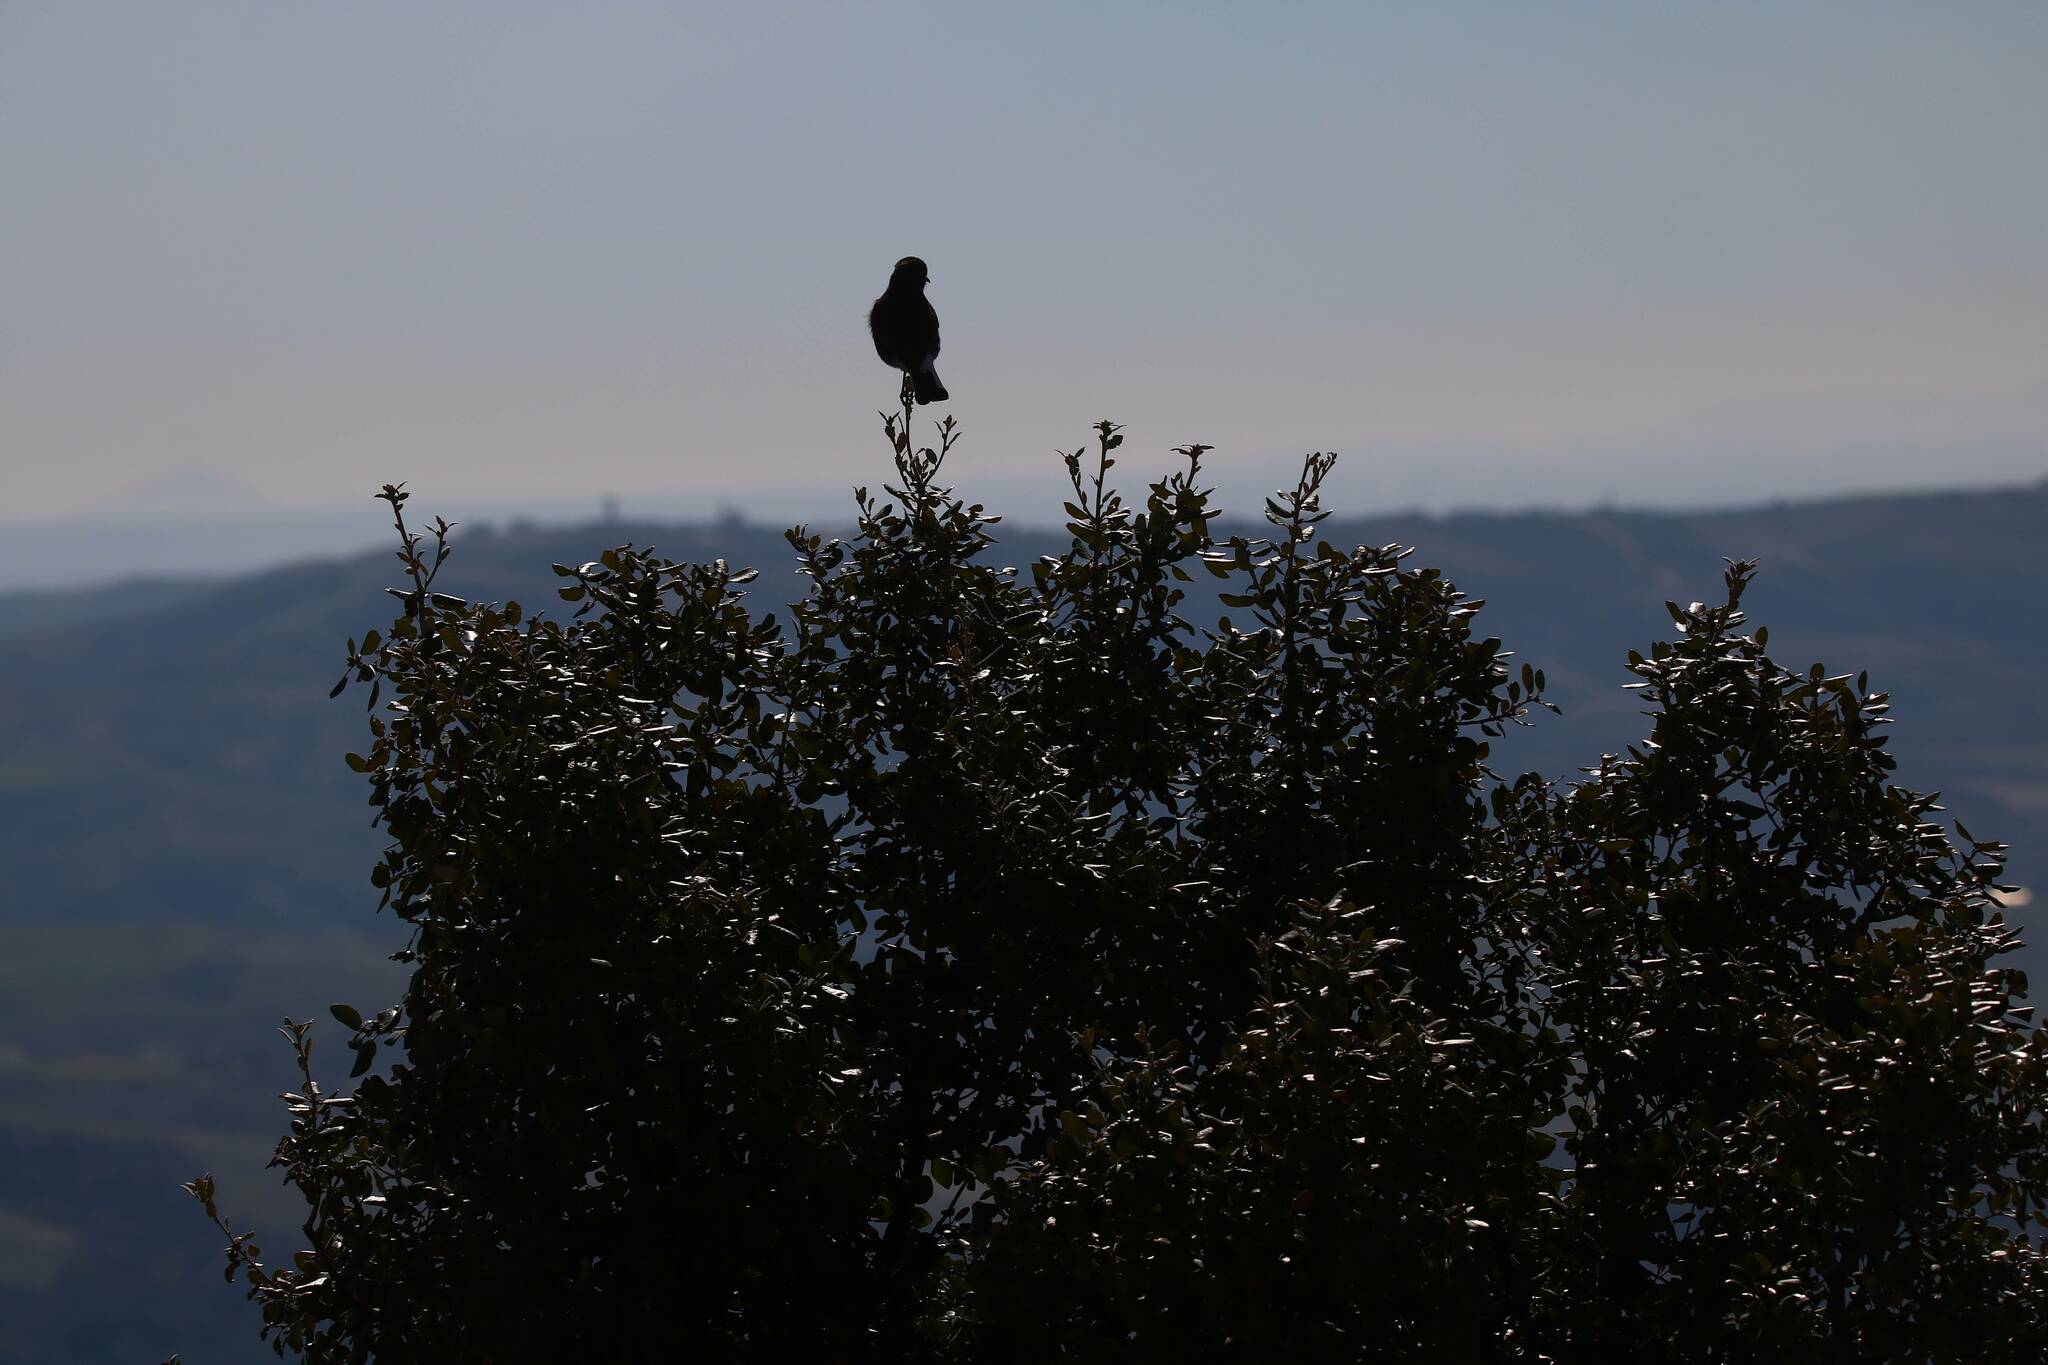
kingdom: Animalia
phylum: Chordata
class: Aves
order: Passeriformes
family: Muscicapidae
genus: Oenanthe
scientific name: Oenanthe leucura
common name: Black wheatear
